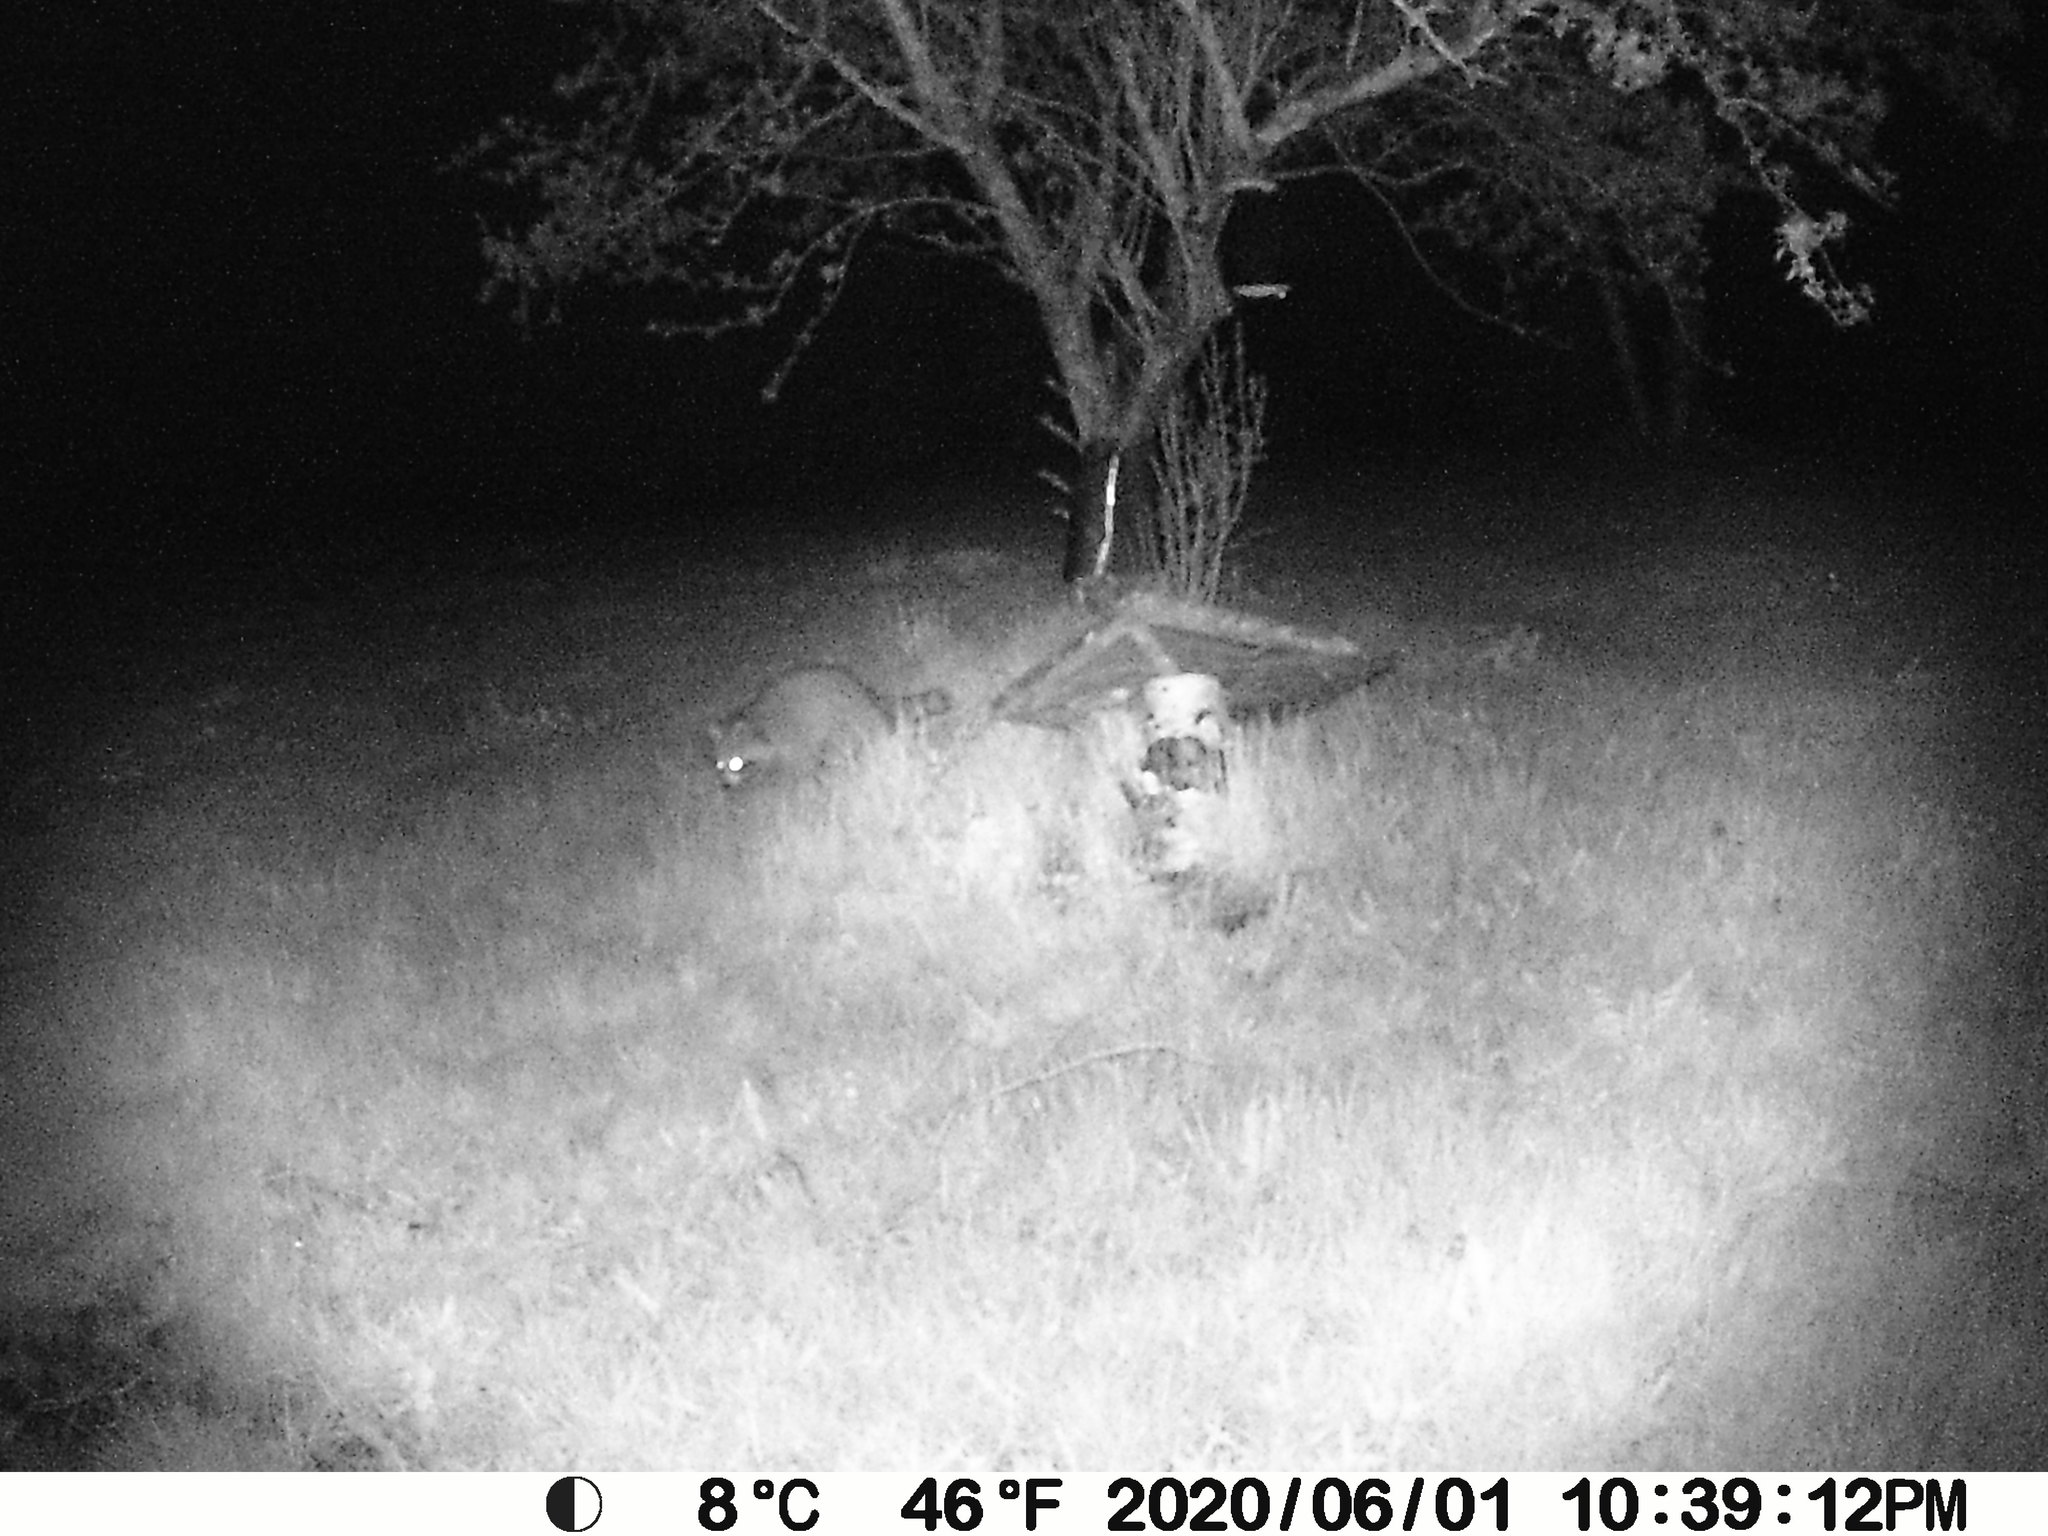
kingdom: Animalia
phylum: Chordata
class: Mammalia
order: Carnivora
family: Procyonidae
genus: Procyon
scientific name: Procyon lotor
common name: Raccoon
